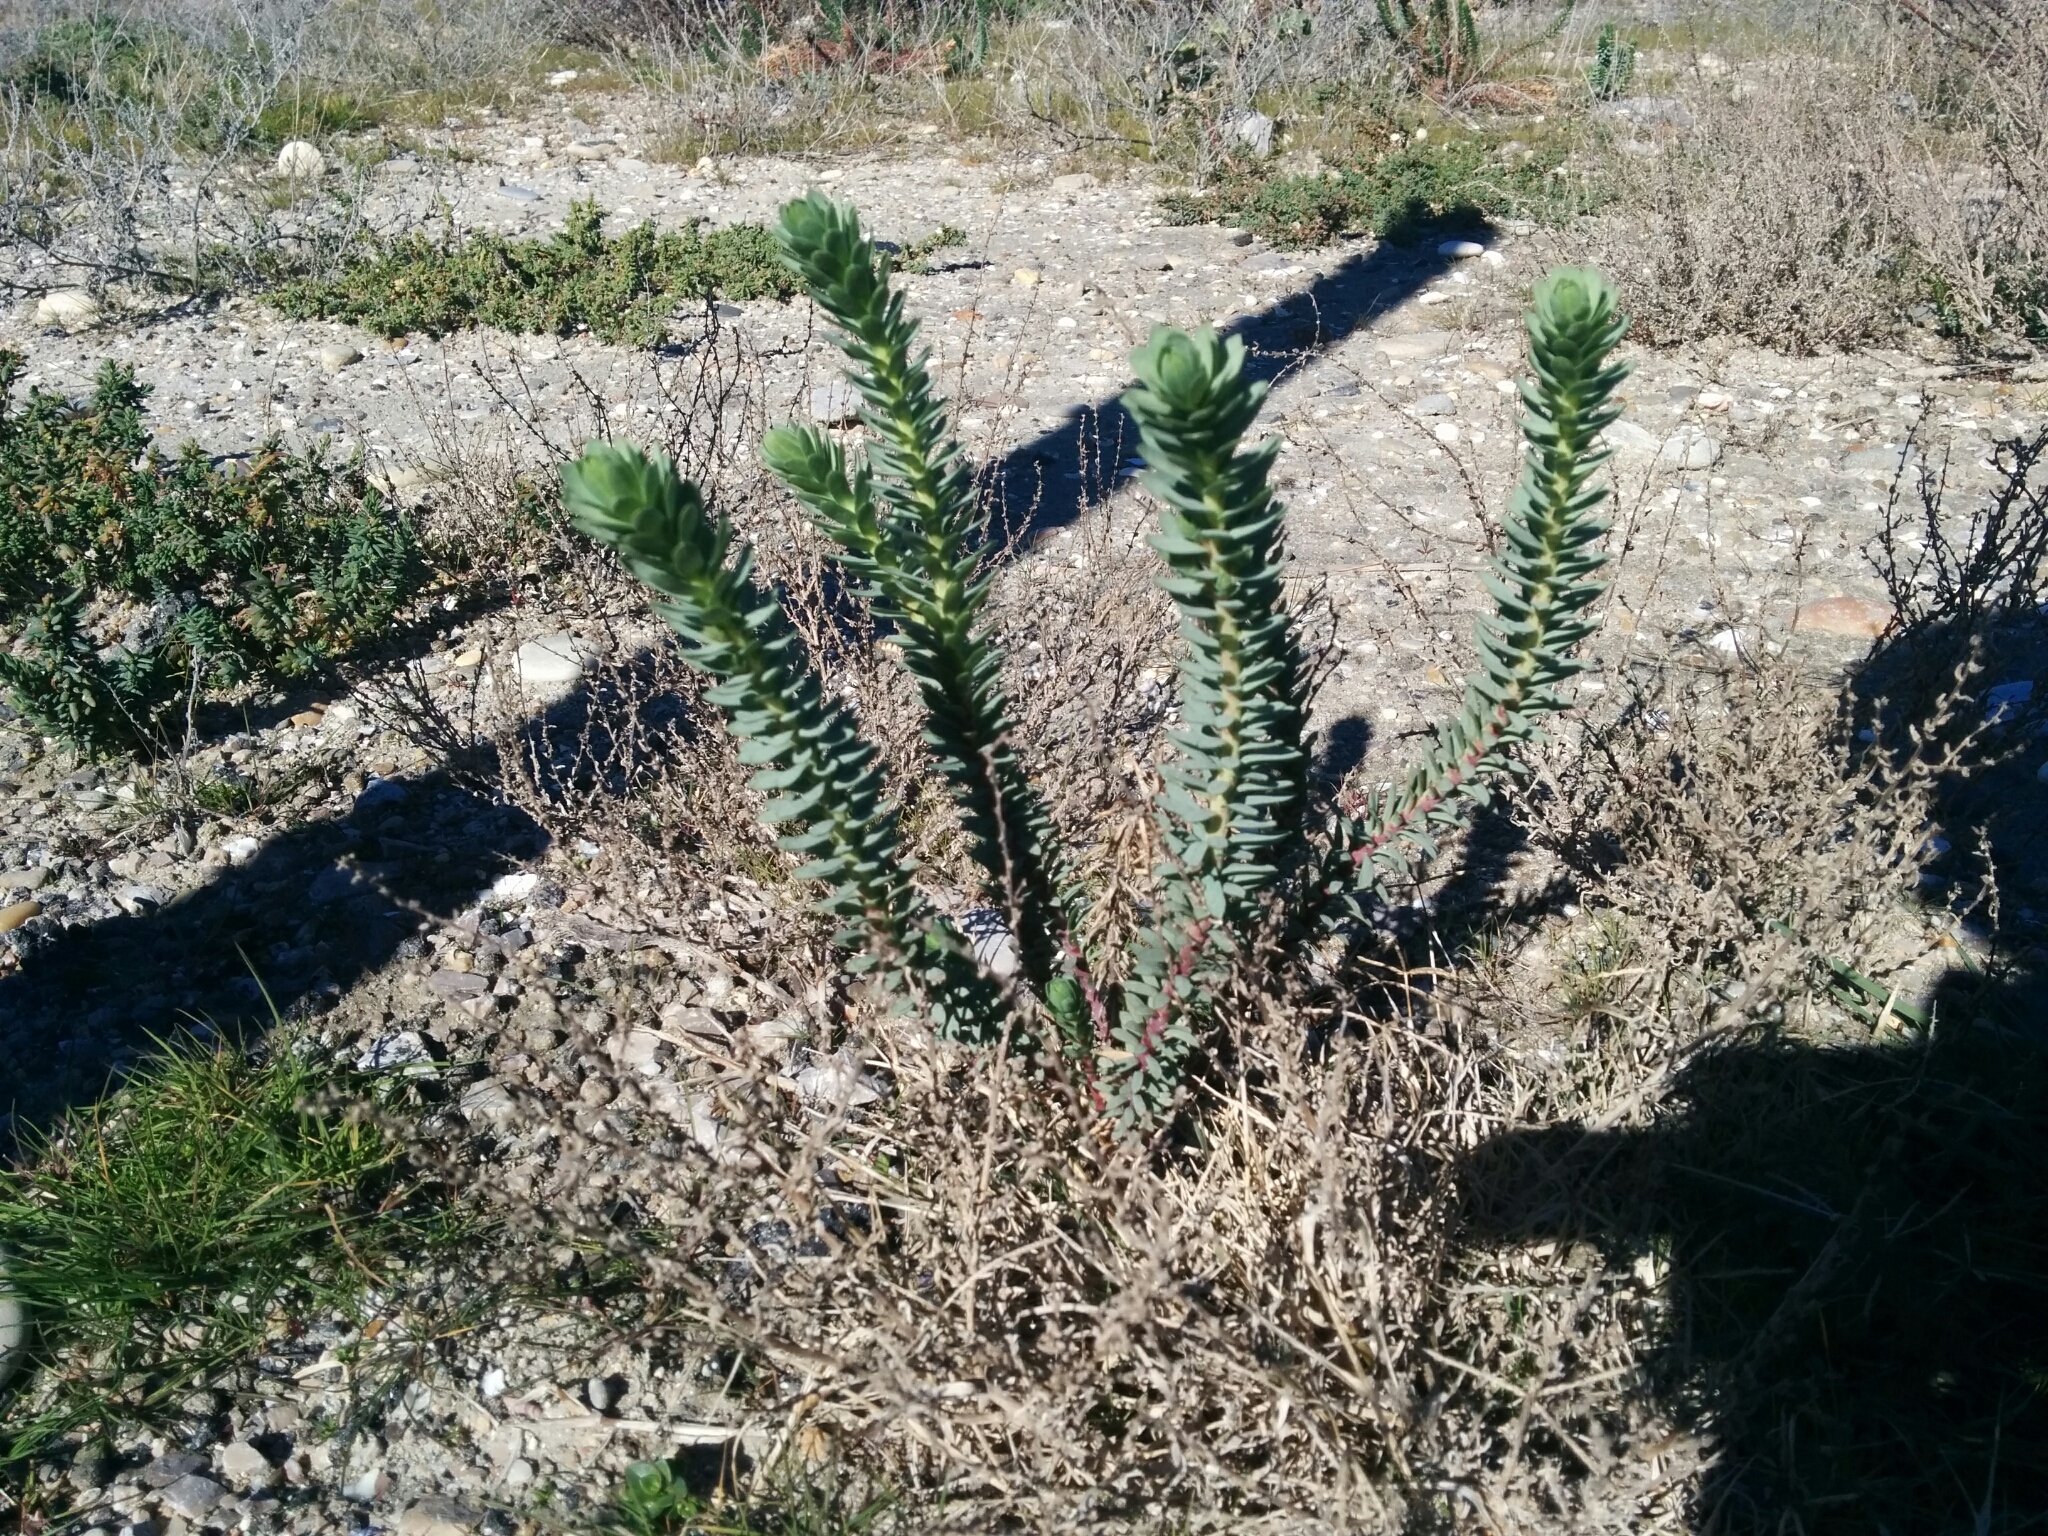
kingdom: Plantae
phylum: Tracheophyta
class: Magnoliopsida
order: Malpighiales
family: Euphorbiaceae
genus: Euphorbia
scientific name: Euphorbia paralias
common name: Sea spurge
